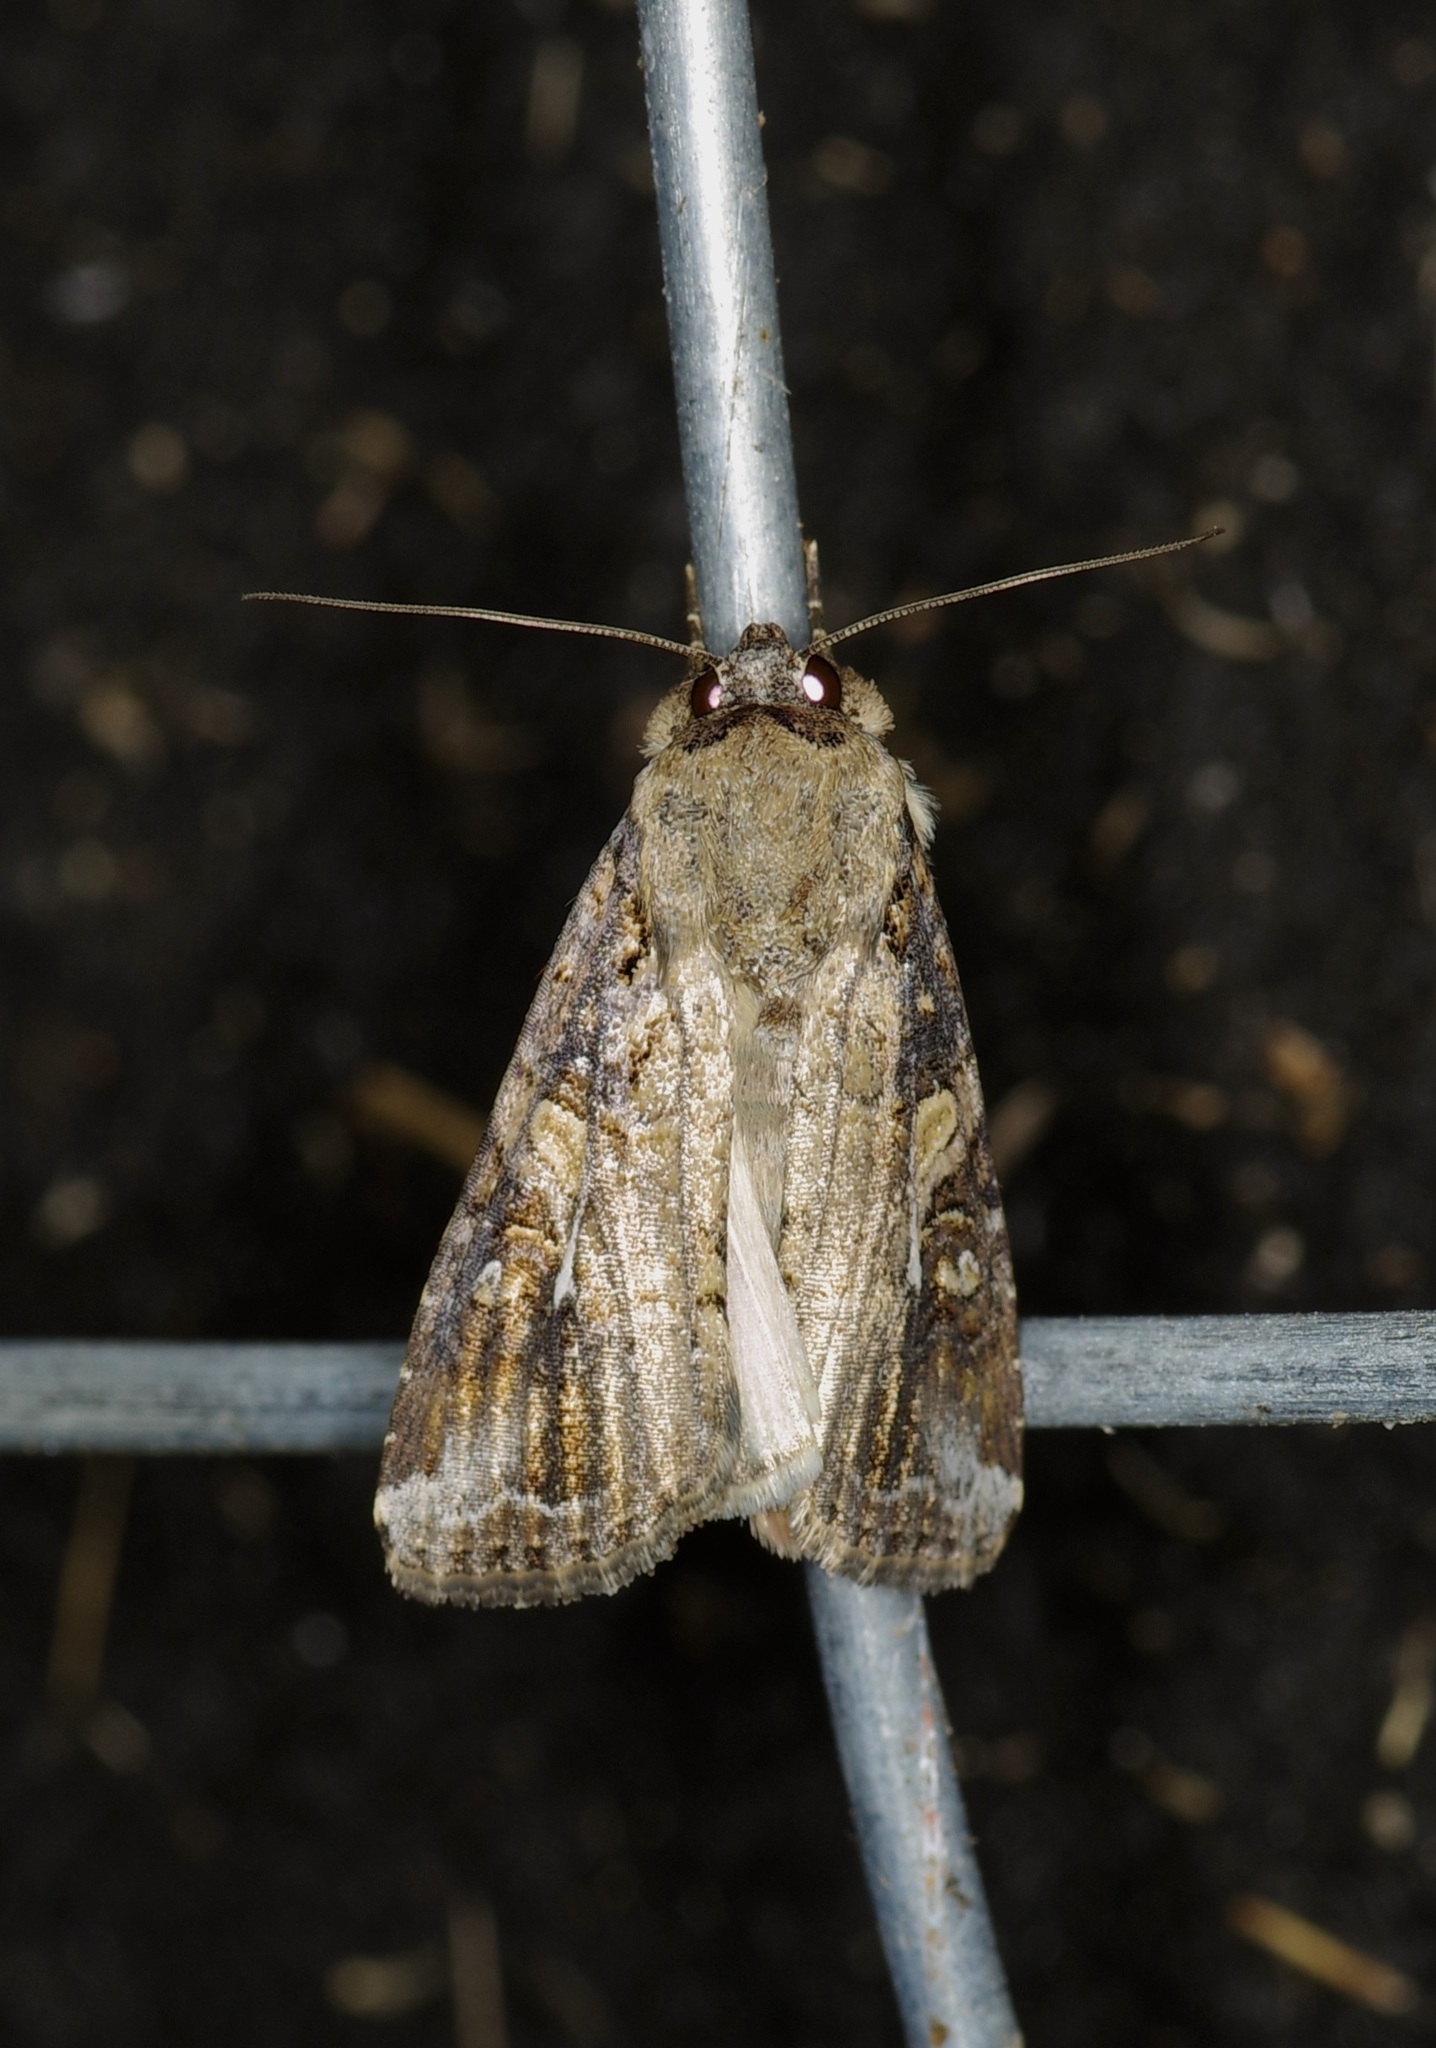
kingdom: Animalia
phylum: Arthropoda
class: Insecta
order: Lepidoptera
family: Noctuidae
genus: Spodoptera
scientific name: Spodoptera frugiperda
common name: Fall armyworm
